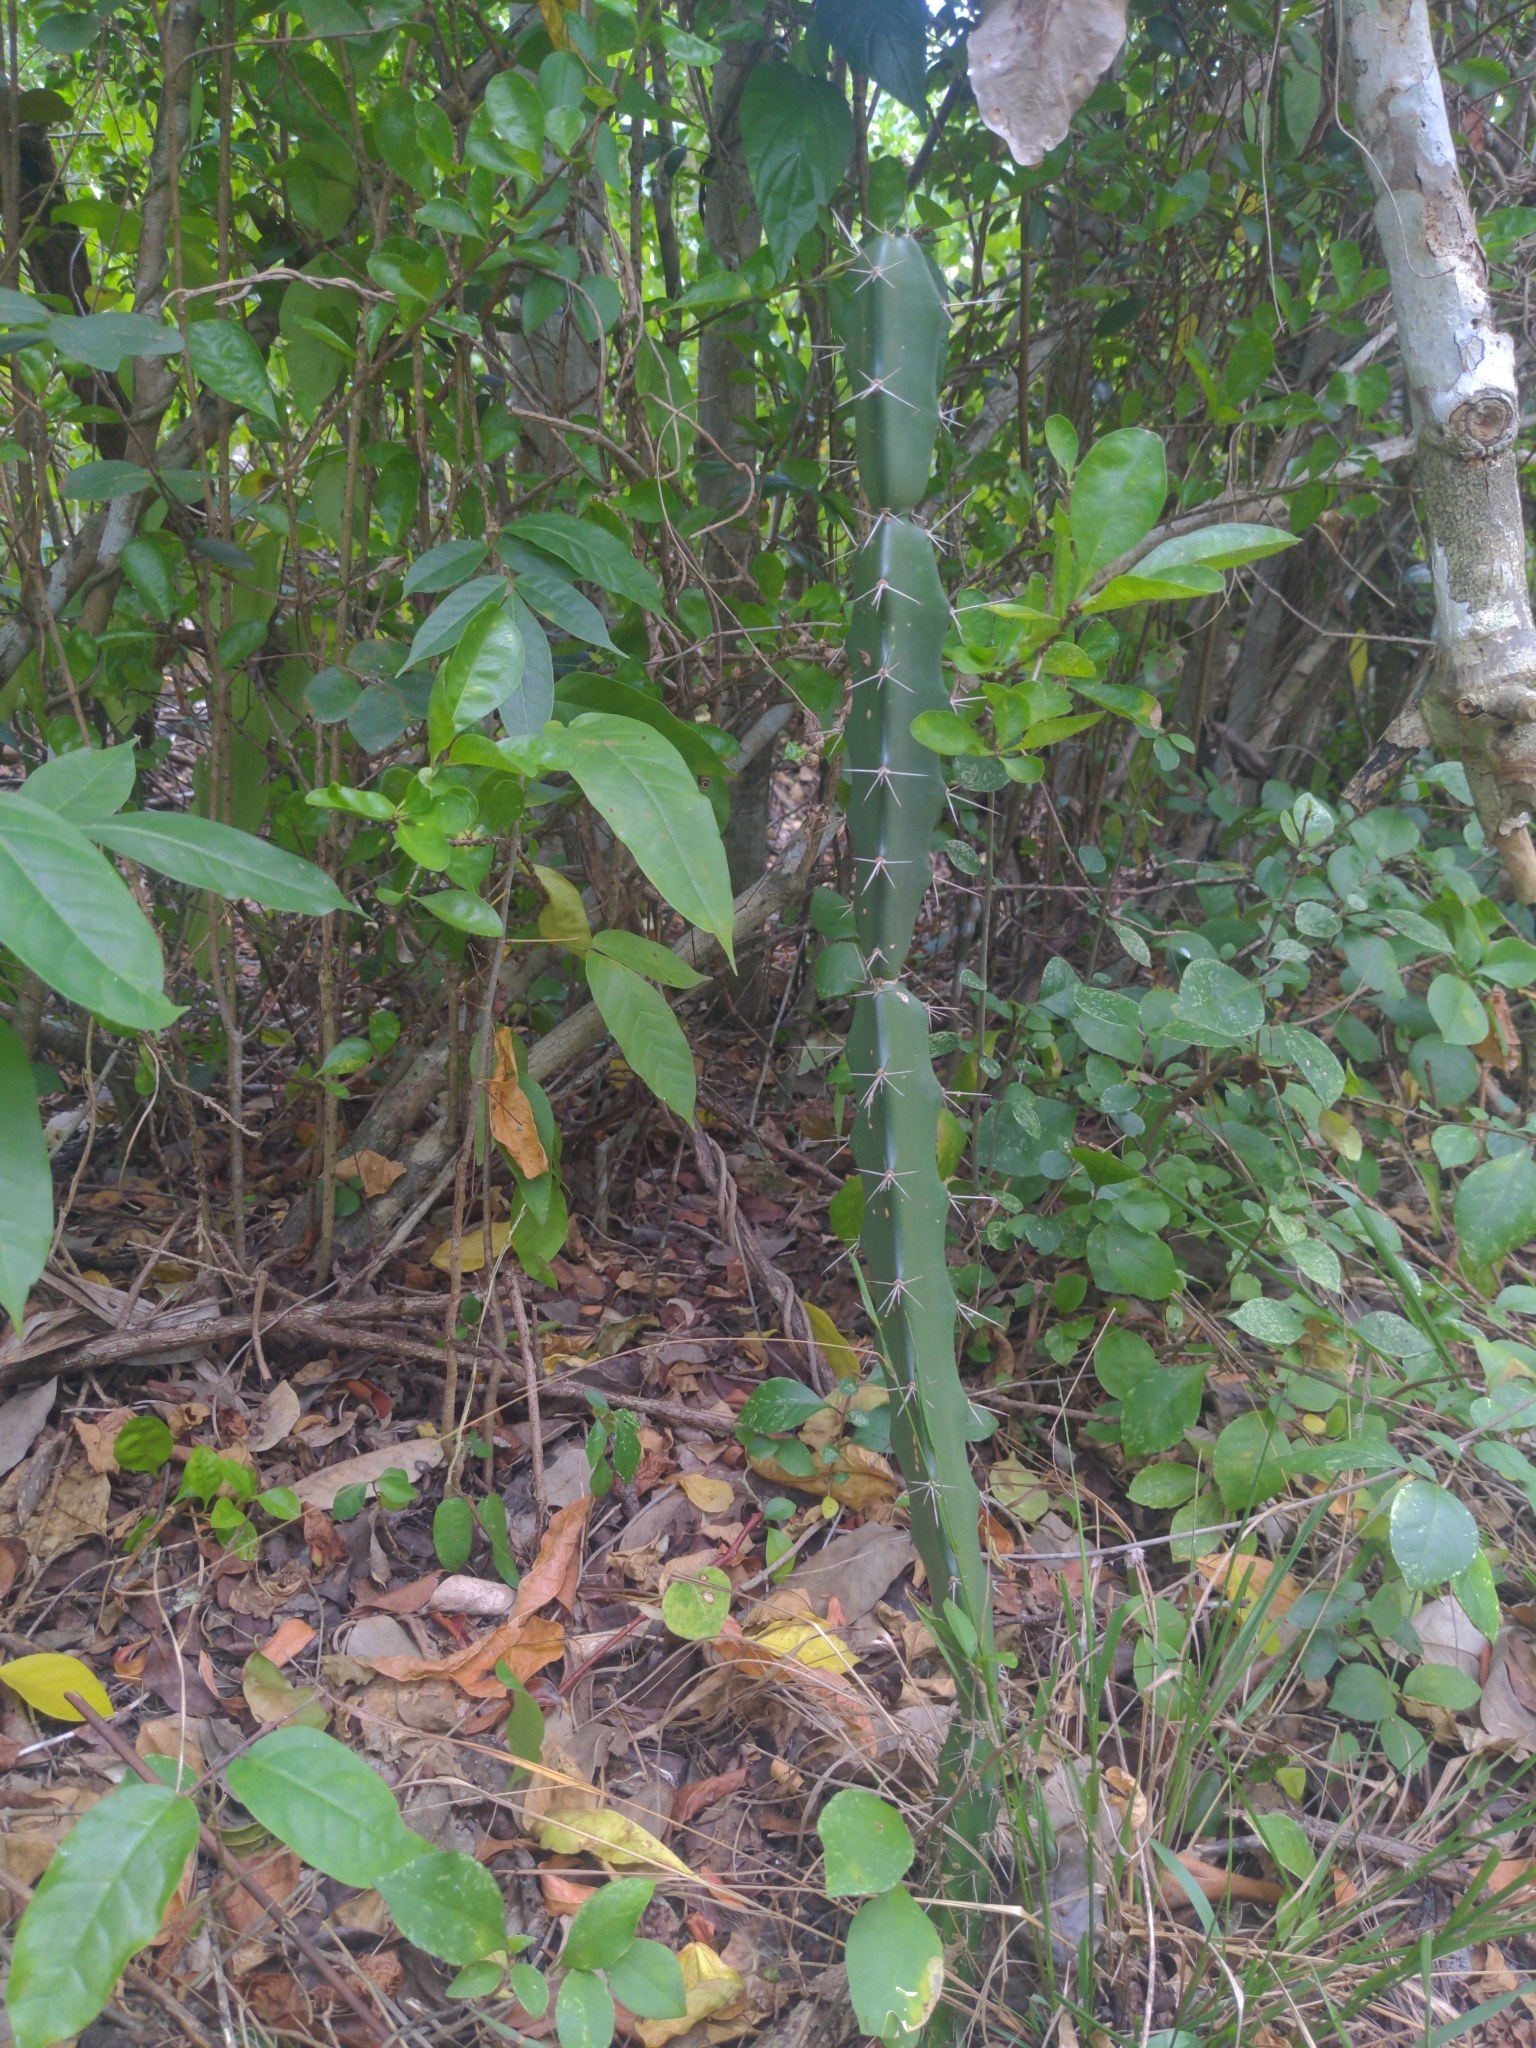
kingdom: Plantae
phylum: Tracheophyta
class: Magnoliopsida
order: Caryophyllales
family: Cactaceae
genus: Acanthocereus
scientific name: Acanthocereus tetragonus
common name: Triangle cactus
